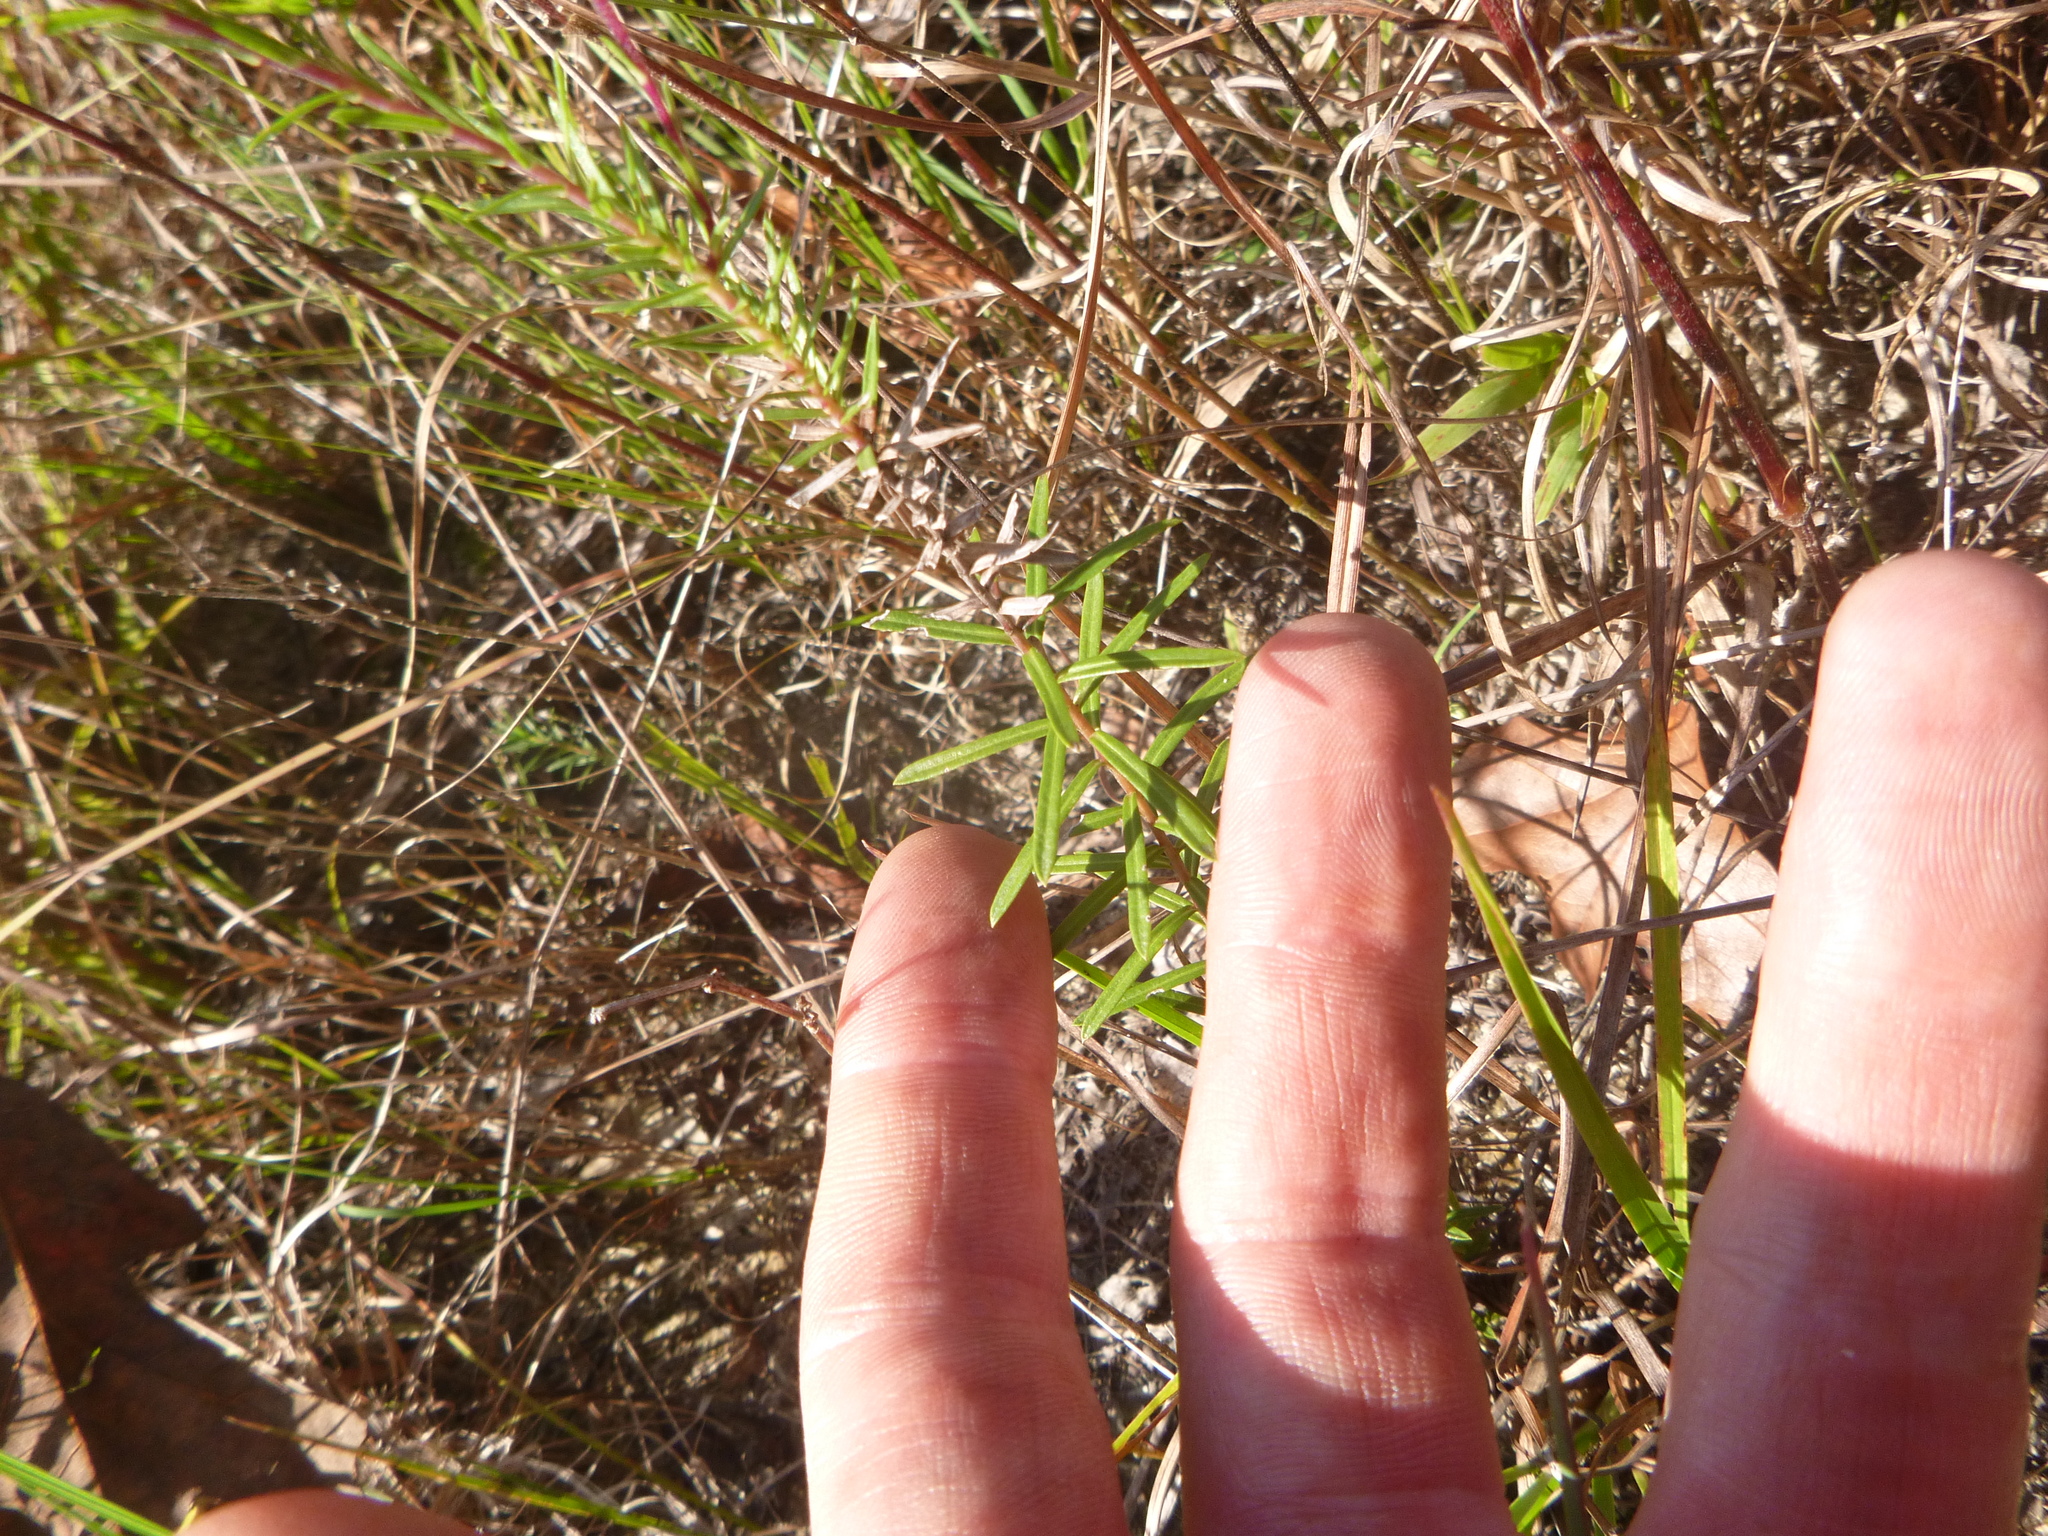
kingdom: Plantae
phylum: Tracheophyta
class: Magnoliopsida
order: Asterales
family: Asteraceae
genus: Ionactis
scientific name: Ionactis linariifolia
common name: Flax-leaf aster
